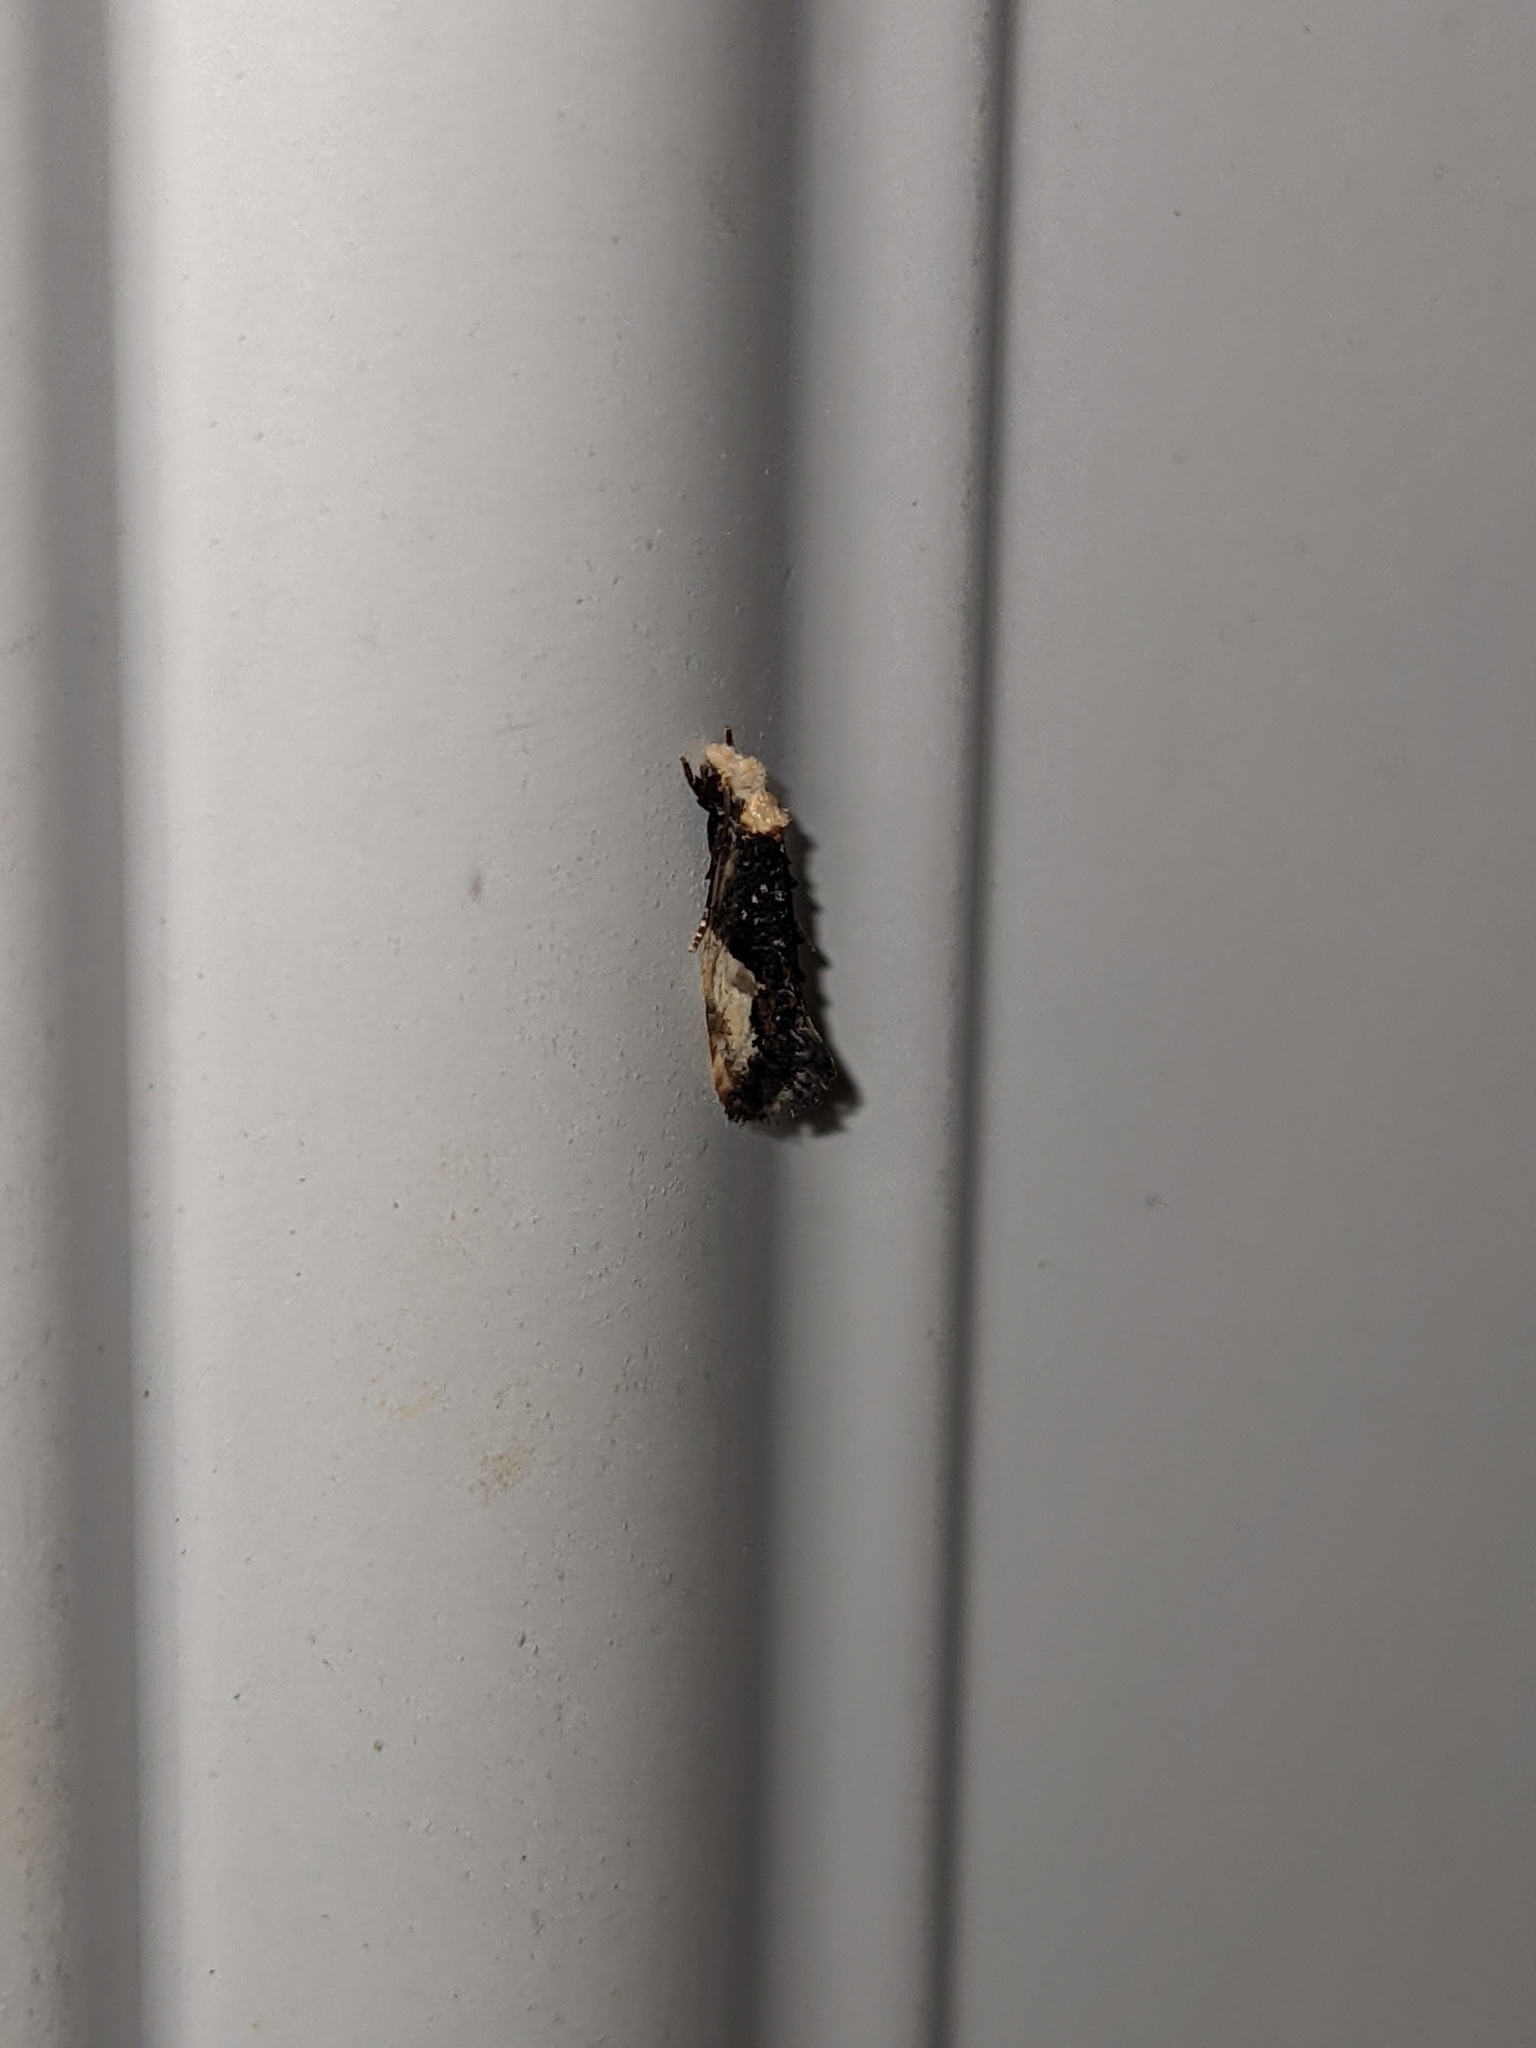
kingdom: Animalia
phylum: Arthropoda
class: Insecta
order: Lepidoptera
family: Tineidae
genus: Monopis
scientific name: Monopis longella
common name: Pavlovski's monopis moth
